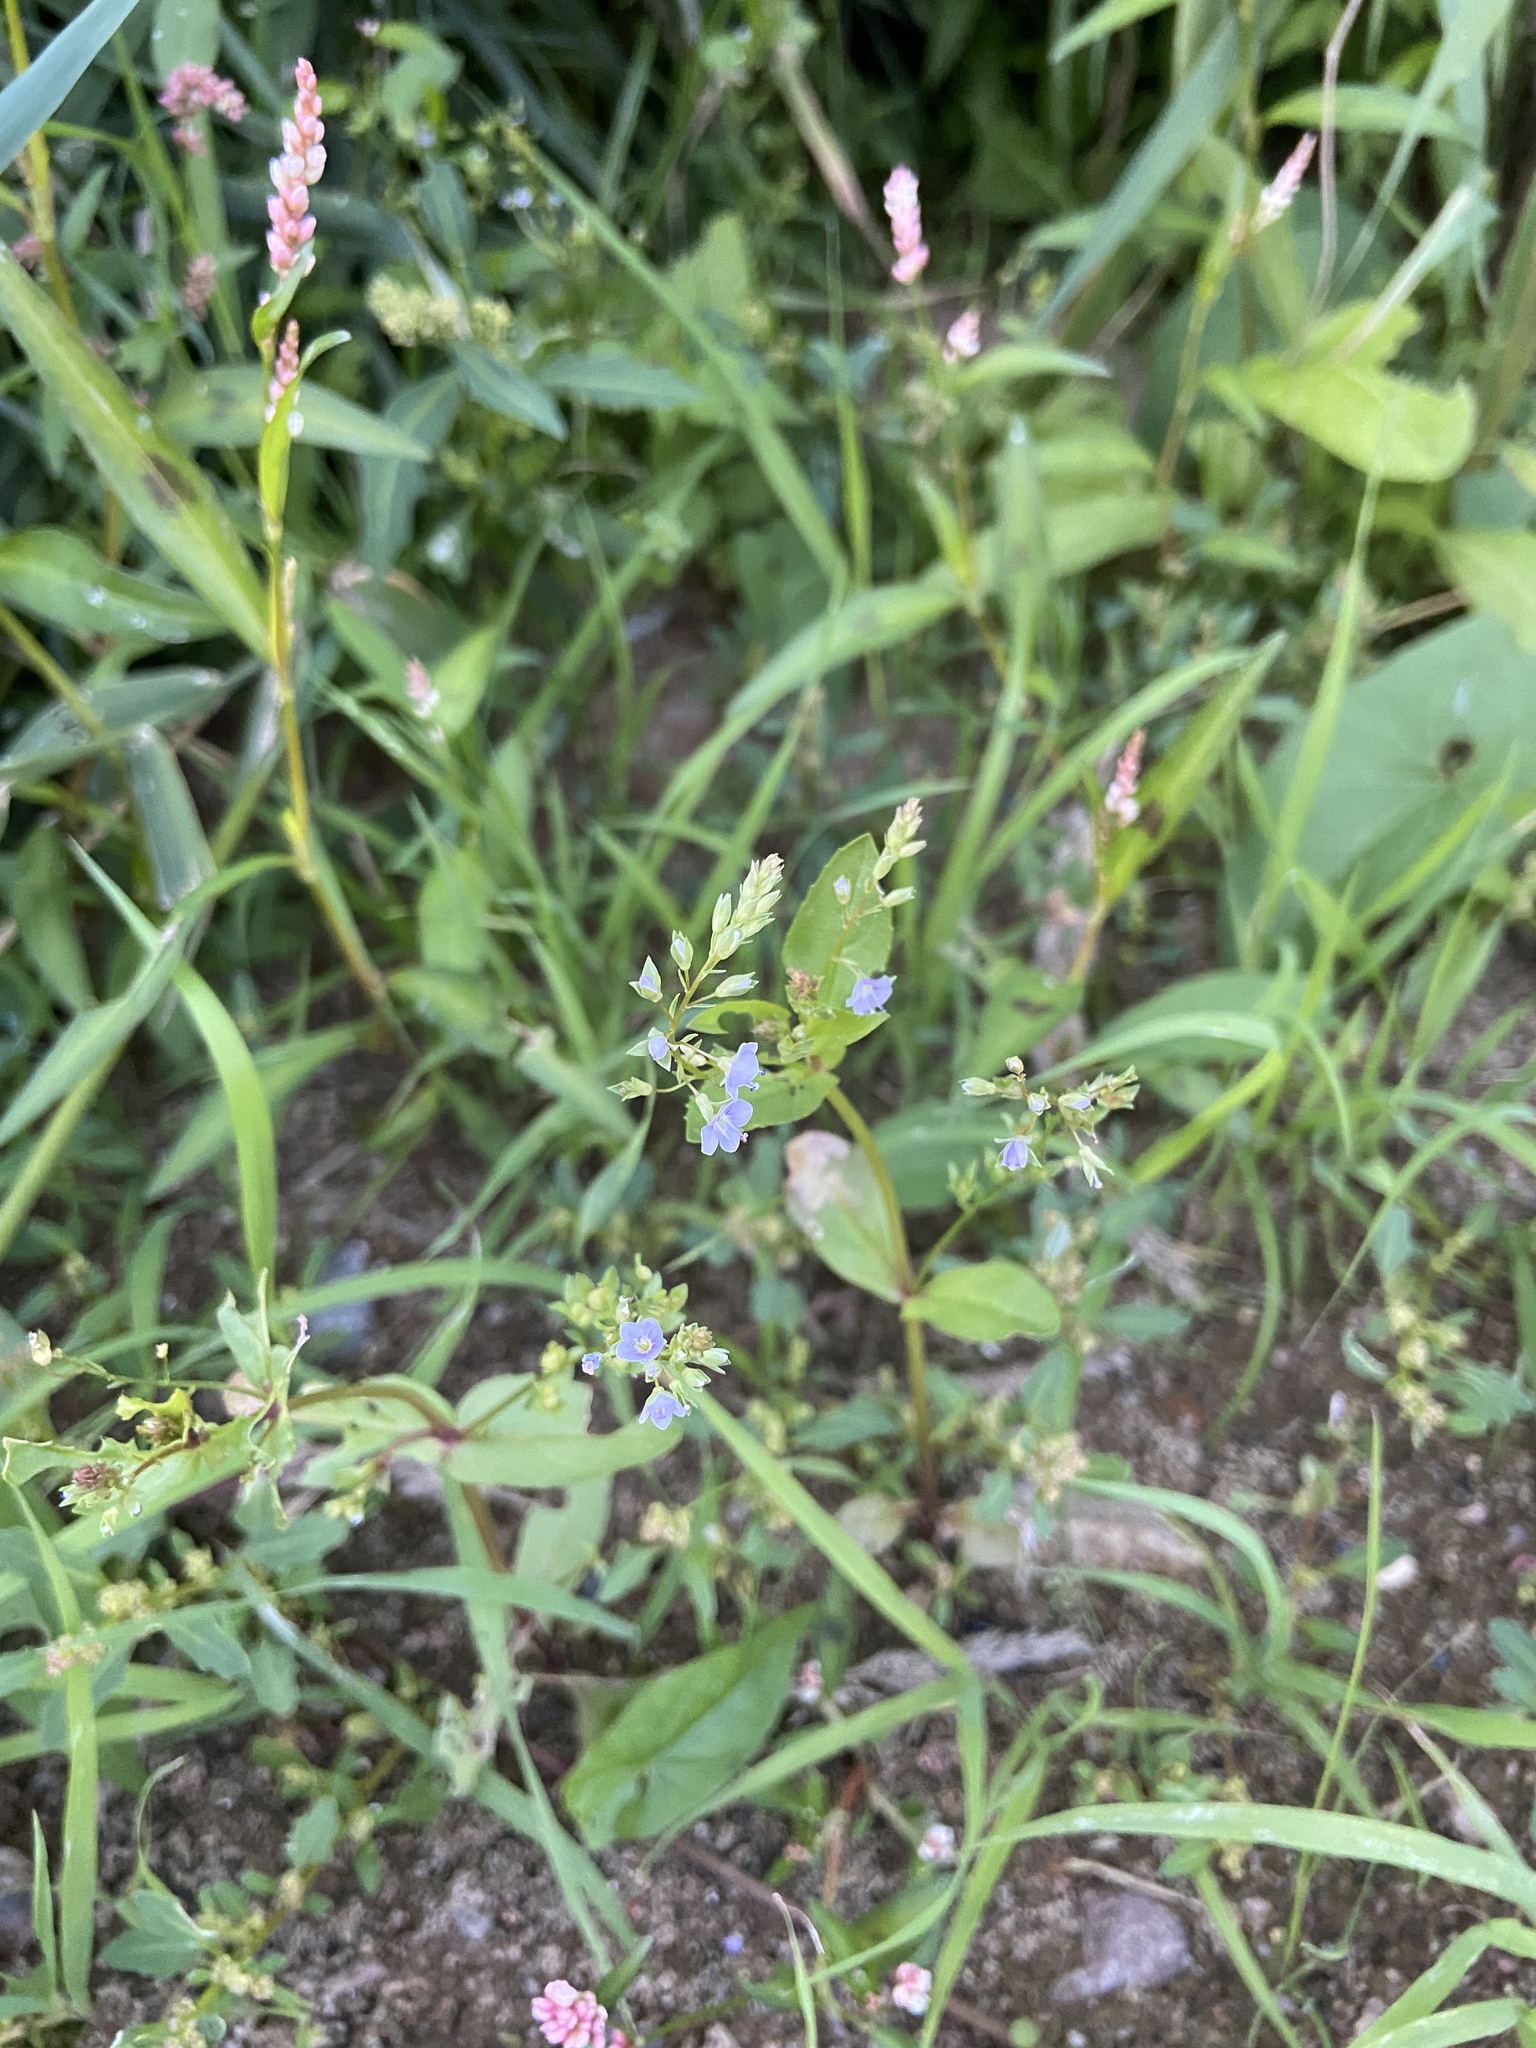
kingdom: Plantae
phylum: Tracheophyta
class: Magnoliopsida
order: Lamiales
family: Plantaginaceae
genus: Veronica
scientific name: Veronica anagallis-aquatica
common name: Water speedwell
